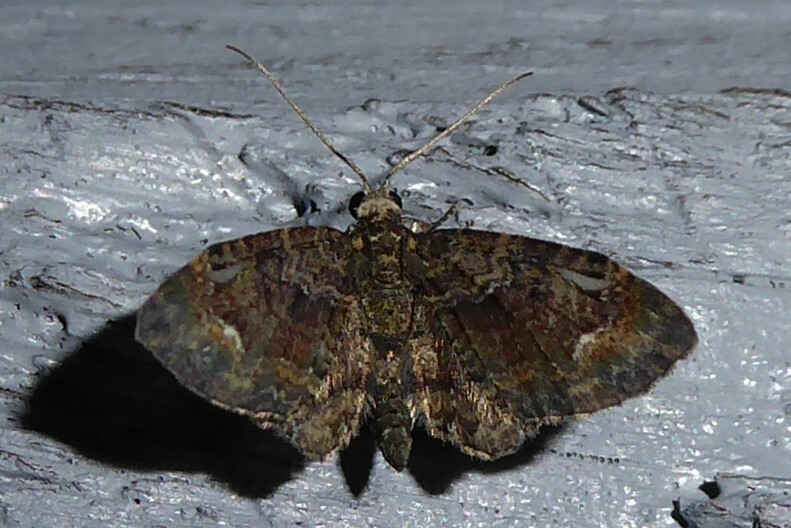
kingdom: Animalia
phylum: Arthropoda
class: Insecta
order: Lepidoptera
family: Geometridae
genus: Pasiphilodes
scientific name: Pasiphilodes testulata
